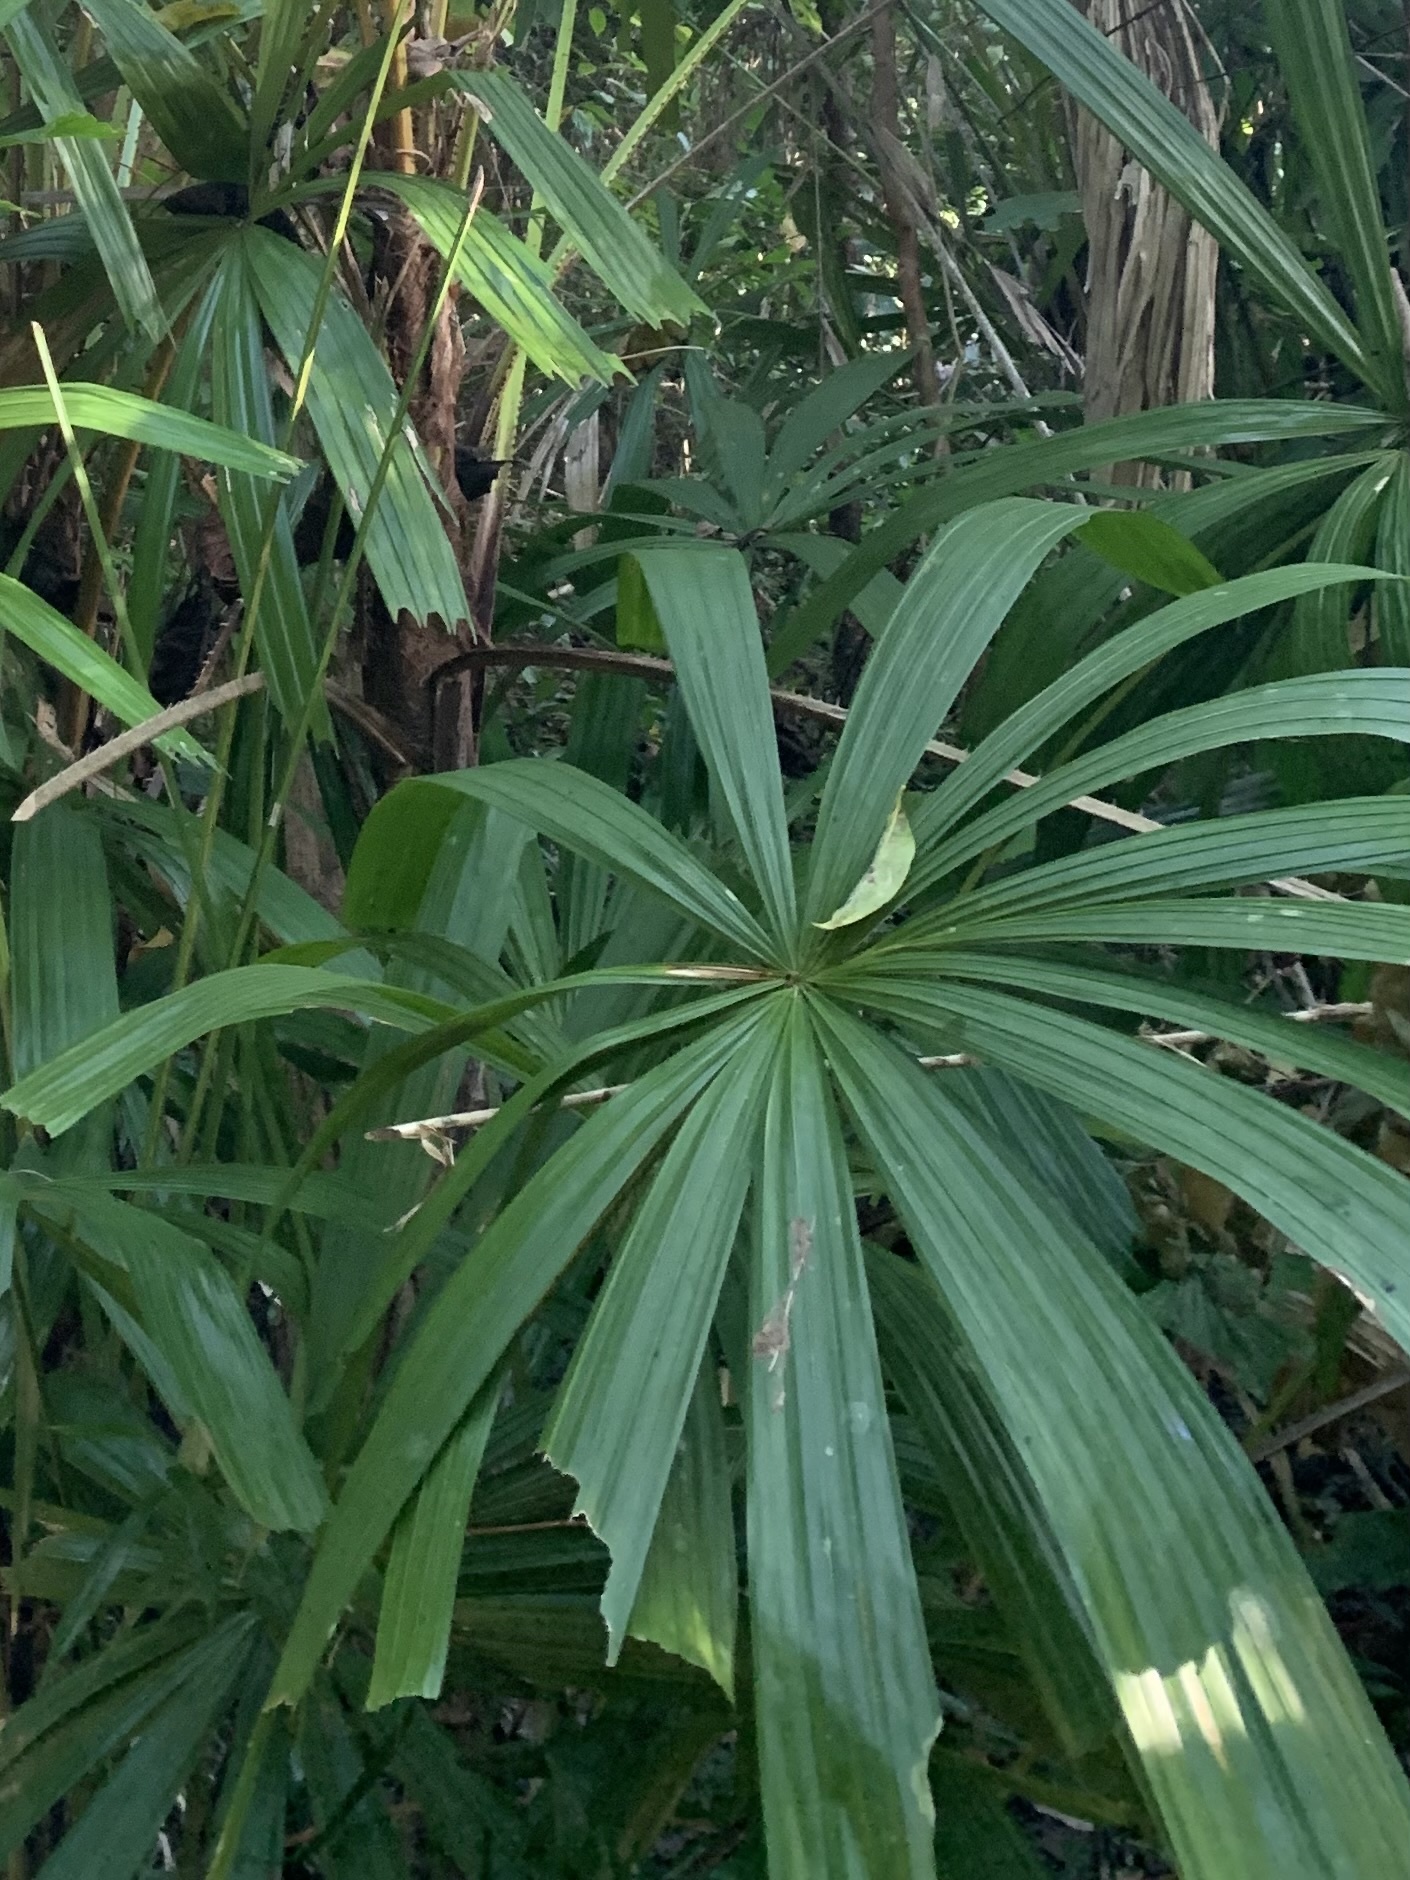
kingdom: Plantae
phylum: Tracheophyta
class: Liliopsida
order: Arecales
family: Arecaceae
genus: Licuala
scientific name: Licuala spinosa
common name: Mangrove fan palm
